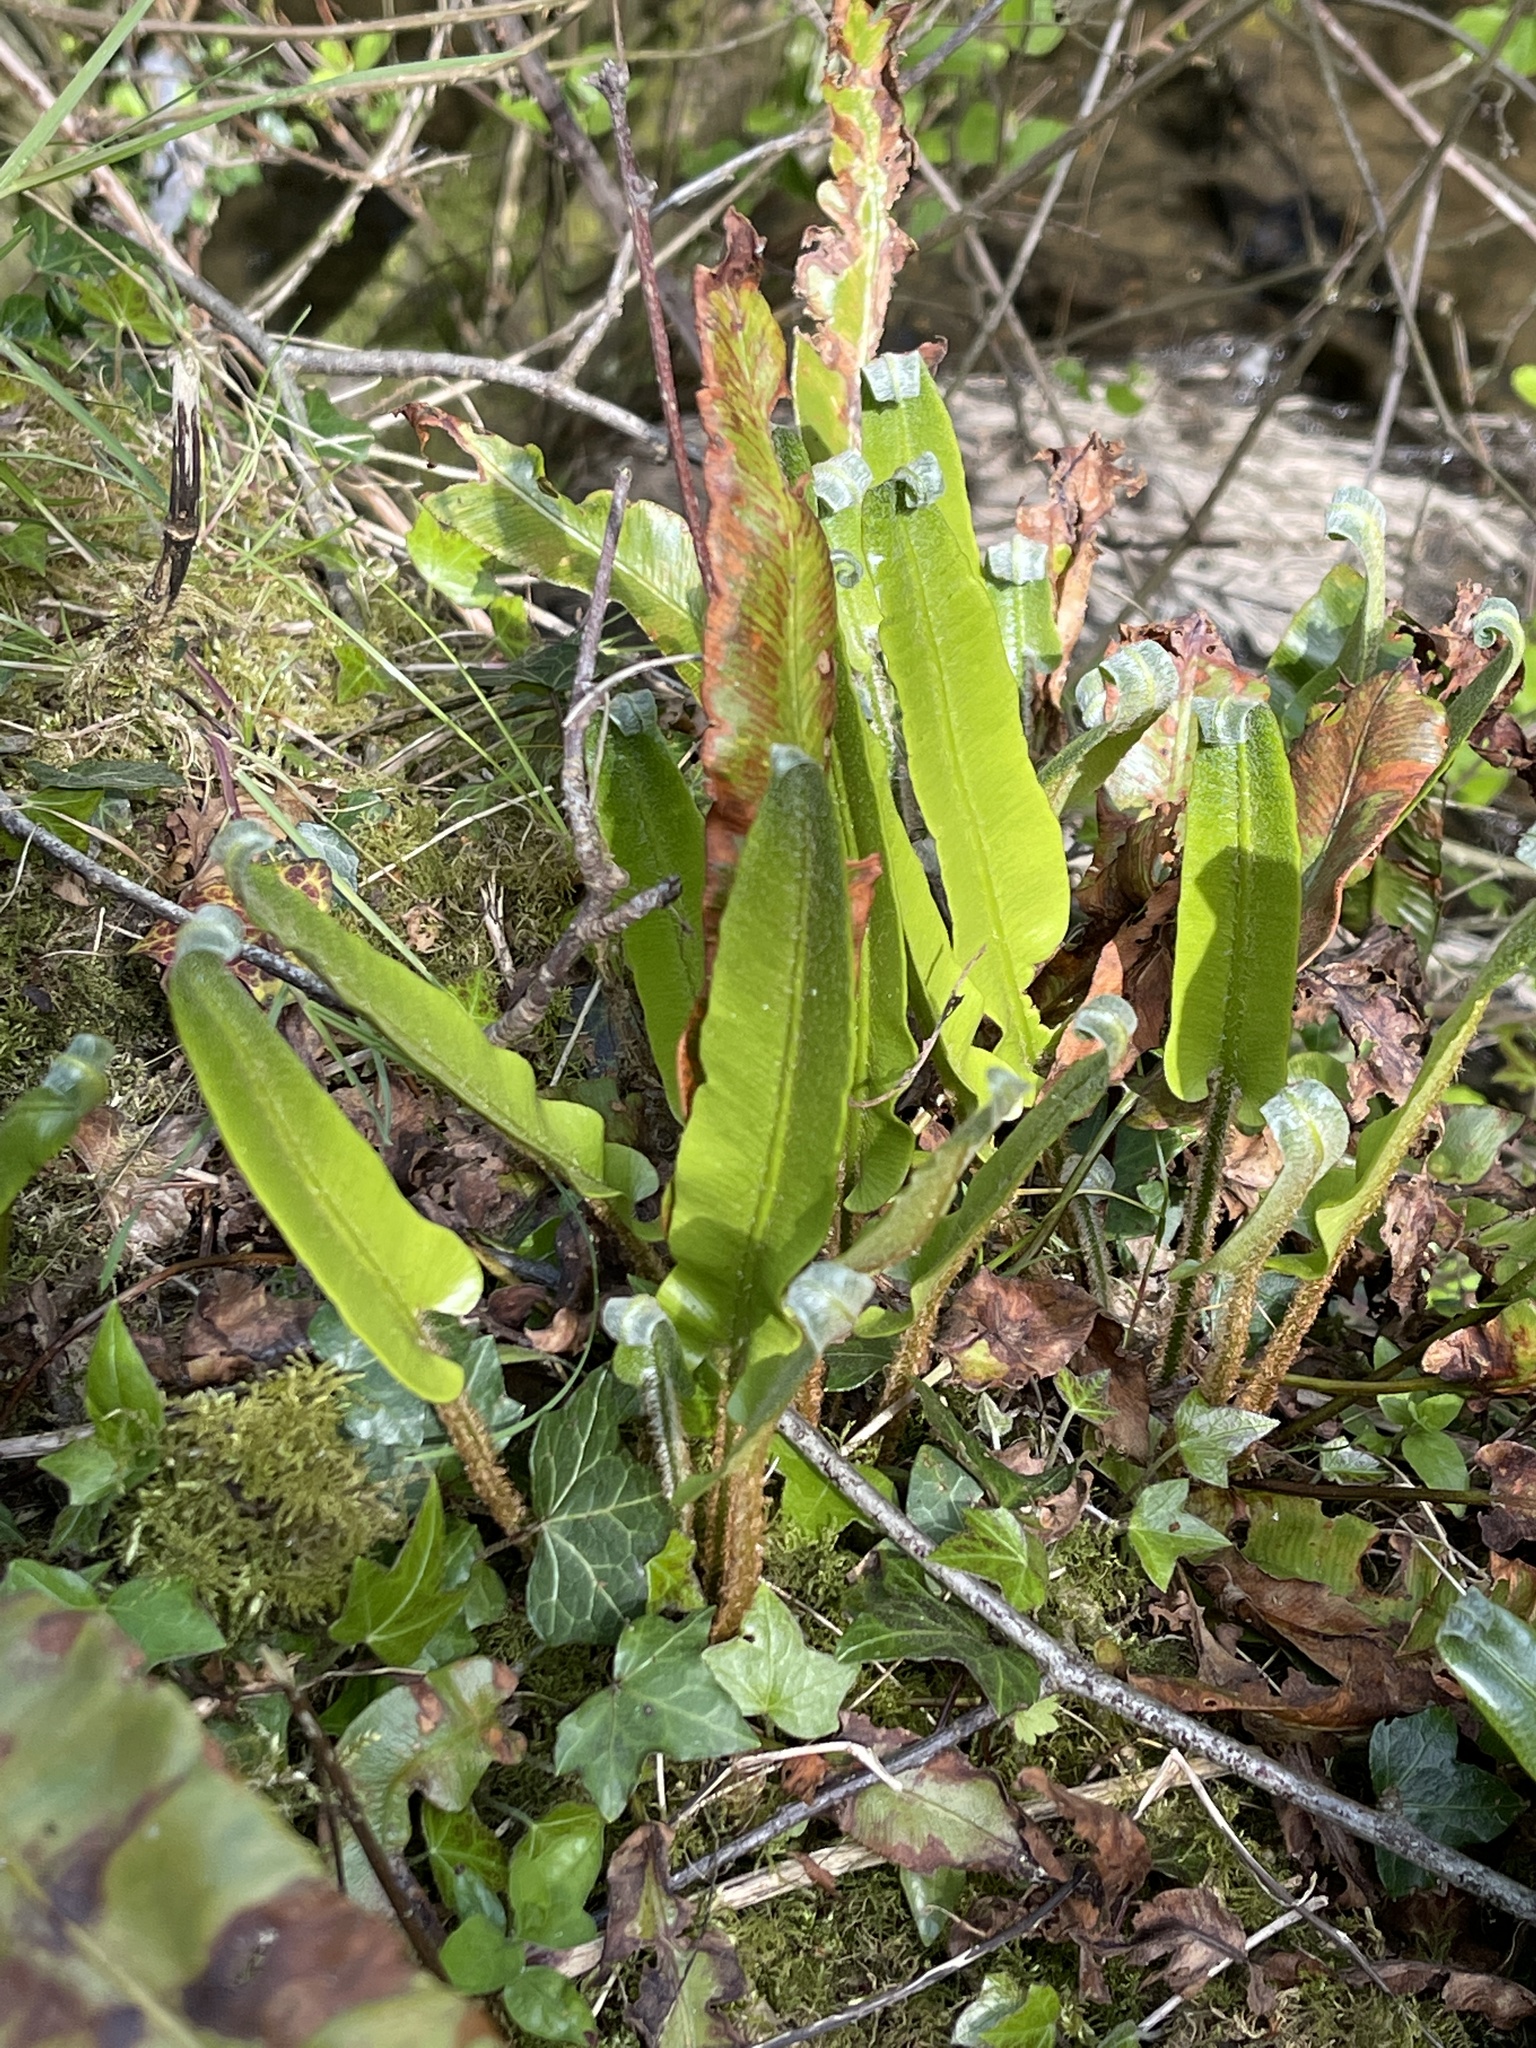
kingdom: Plantae
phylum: Tracheophyta
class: Polypodiopsida
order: Polypodiales
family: Aspleniaceae
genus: Asplenium
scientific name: Asplenium scolopendrium
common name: Hart's-tongue fern
